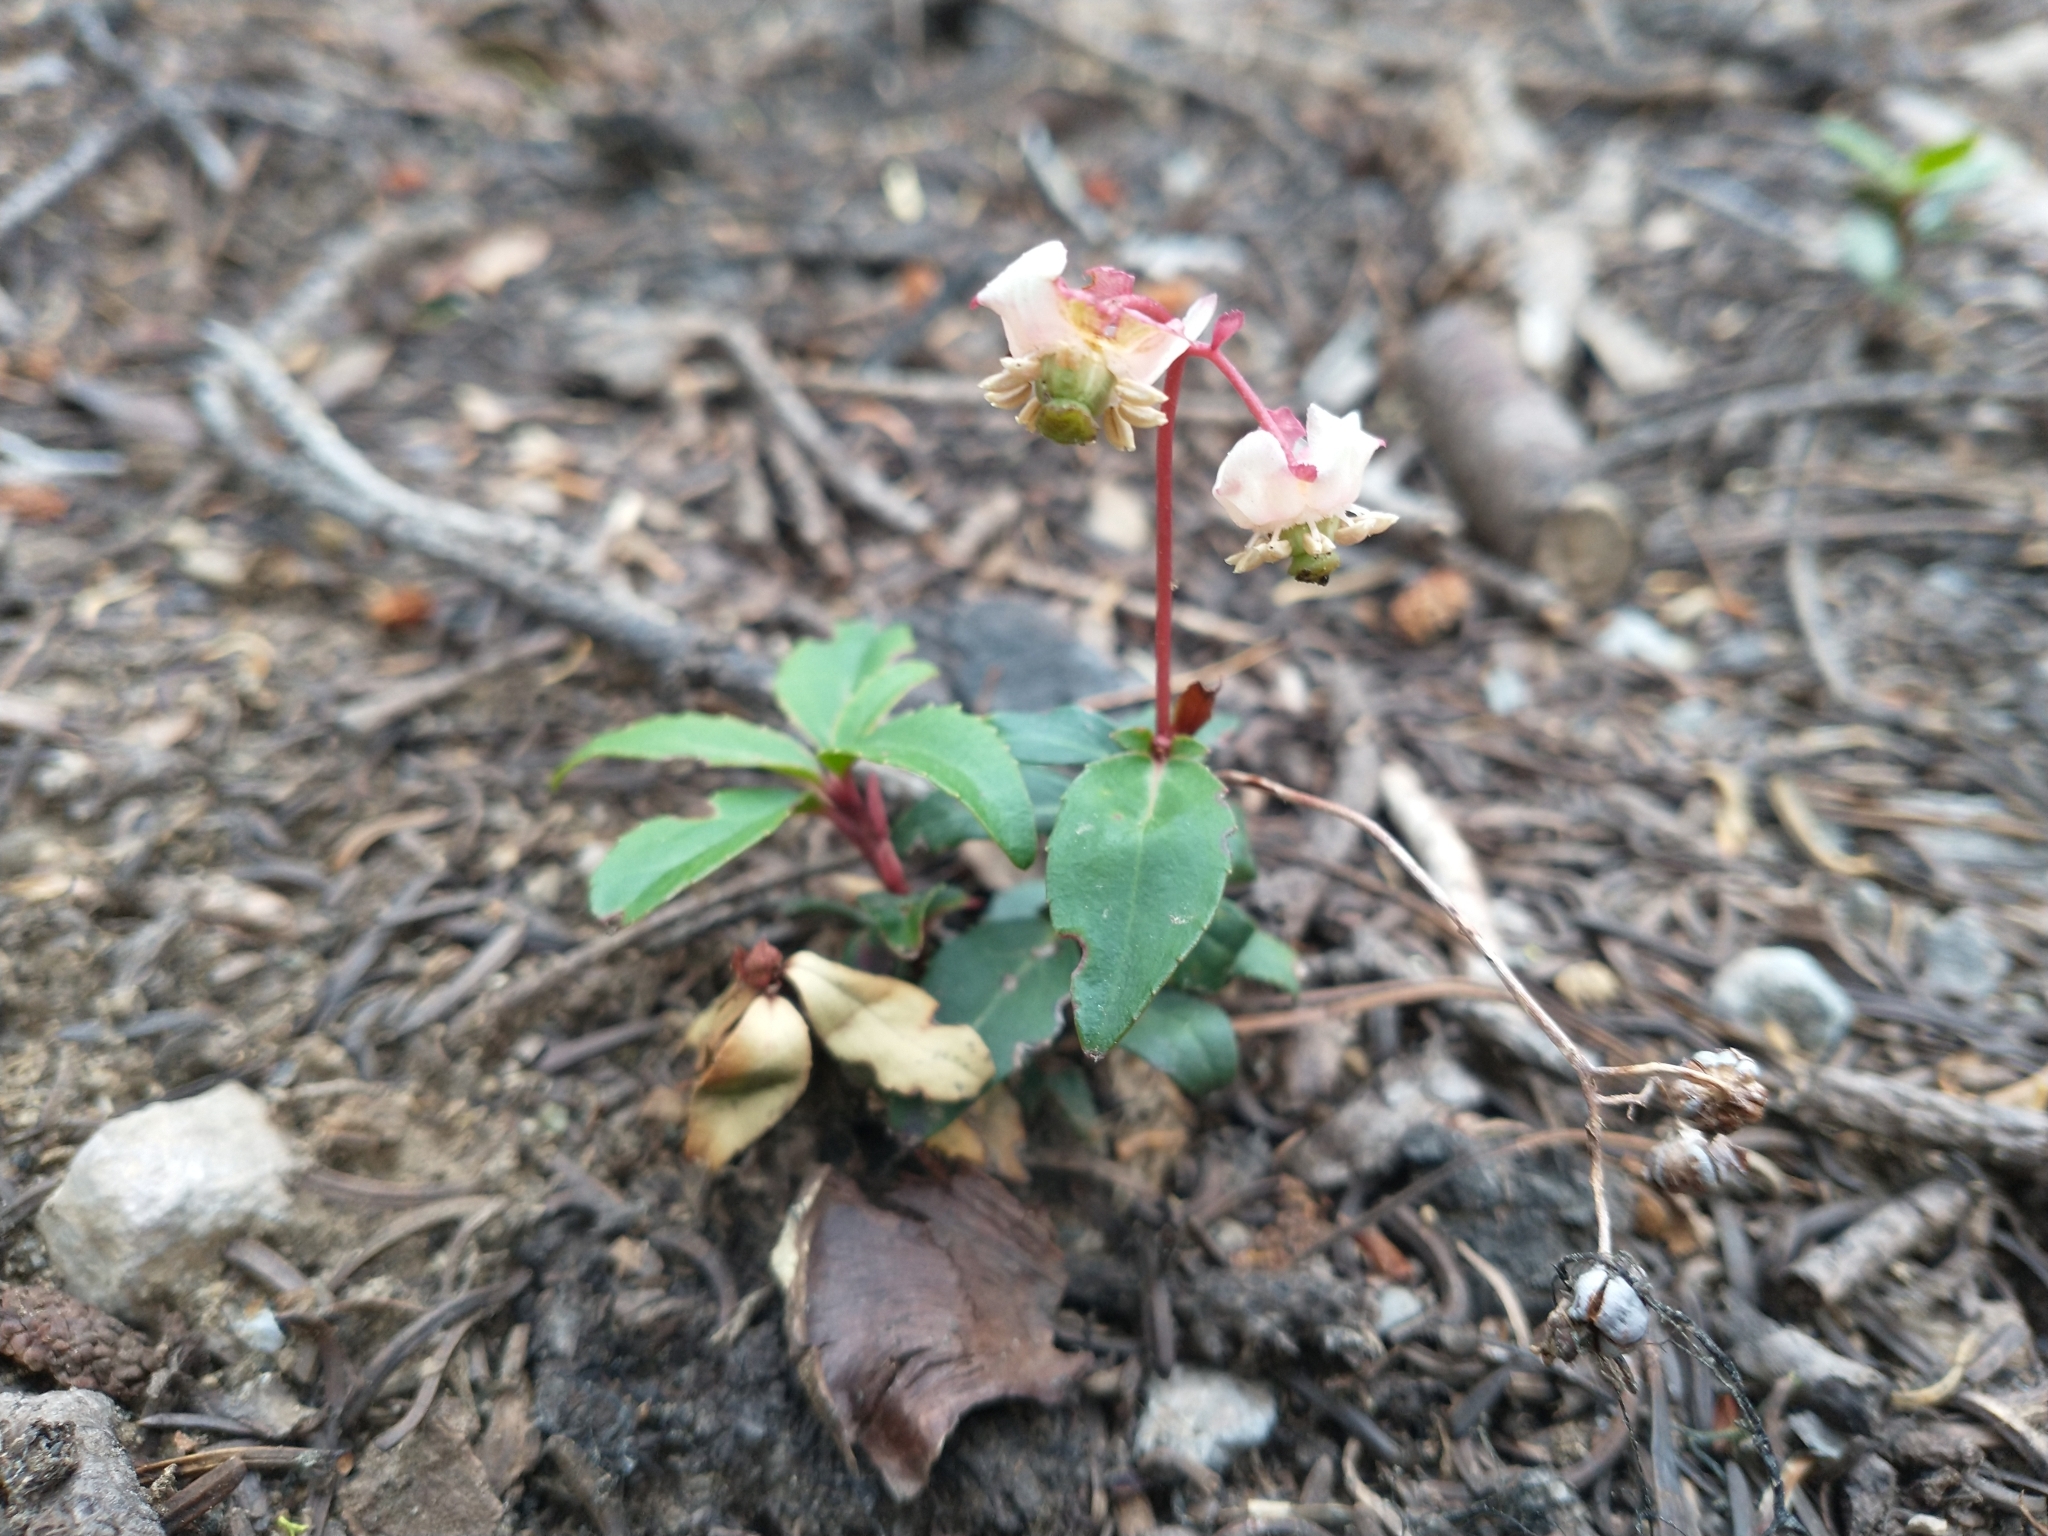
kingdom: Plantae
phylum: Tracheophyta
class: Magnoliopsida
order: Ericales
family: Ericaceae
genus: Chimaphila
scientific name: Chimaphila menziesii
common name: Menzies' pipsissewa
